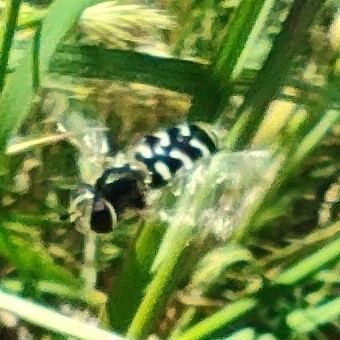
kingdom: Animalia
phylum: Arthropoda
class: Insecta
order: Diptera
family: Syrphidae
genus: Scaeva
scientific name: Scaeva pyrastri
